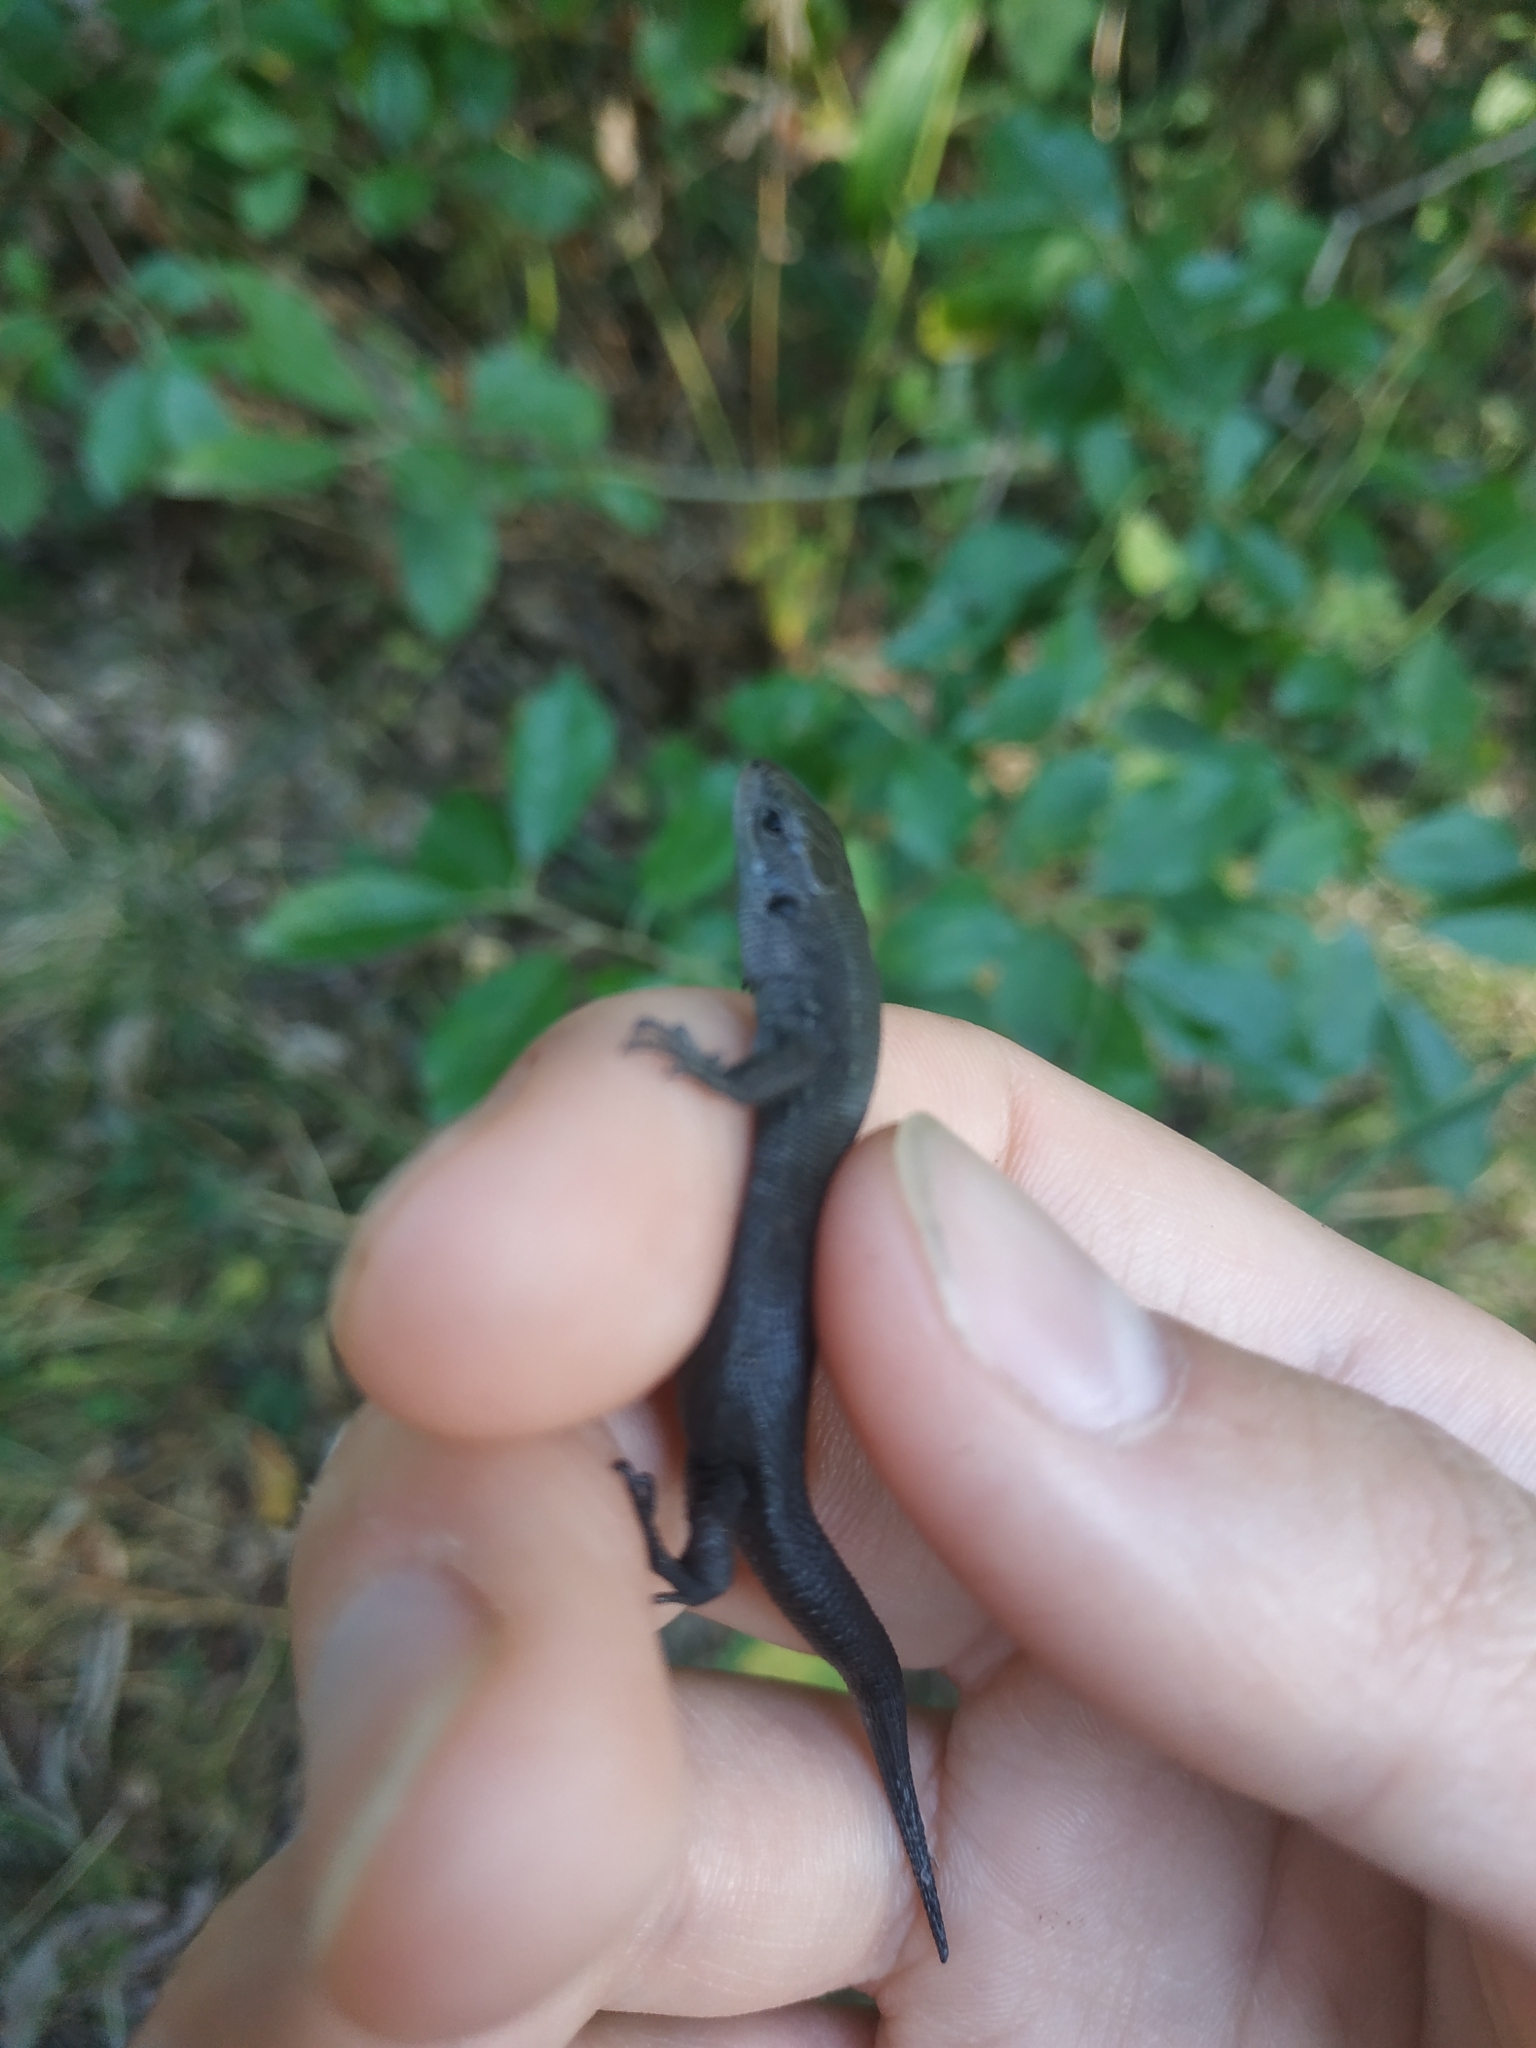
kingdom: Animalia
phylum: Chordata
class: Squamata
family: Lacertidae
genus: Zootoca
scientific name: Zootoca vivipara
